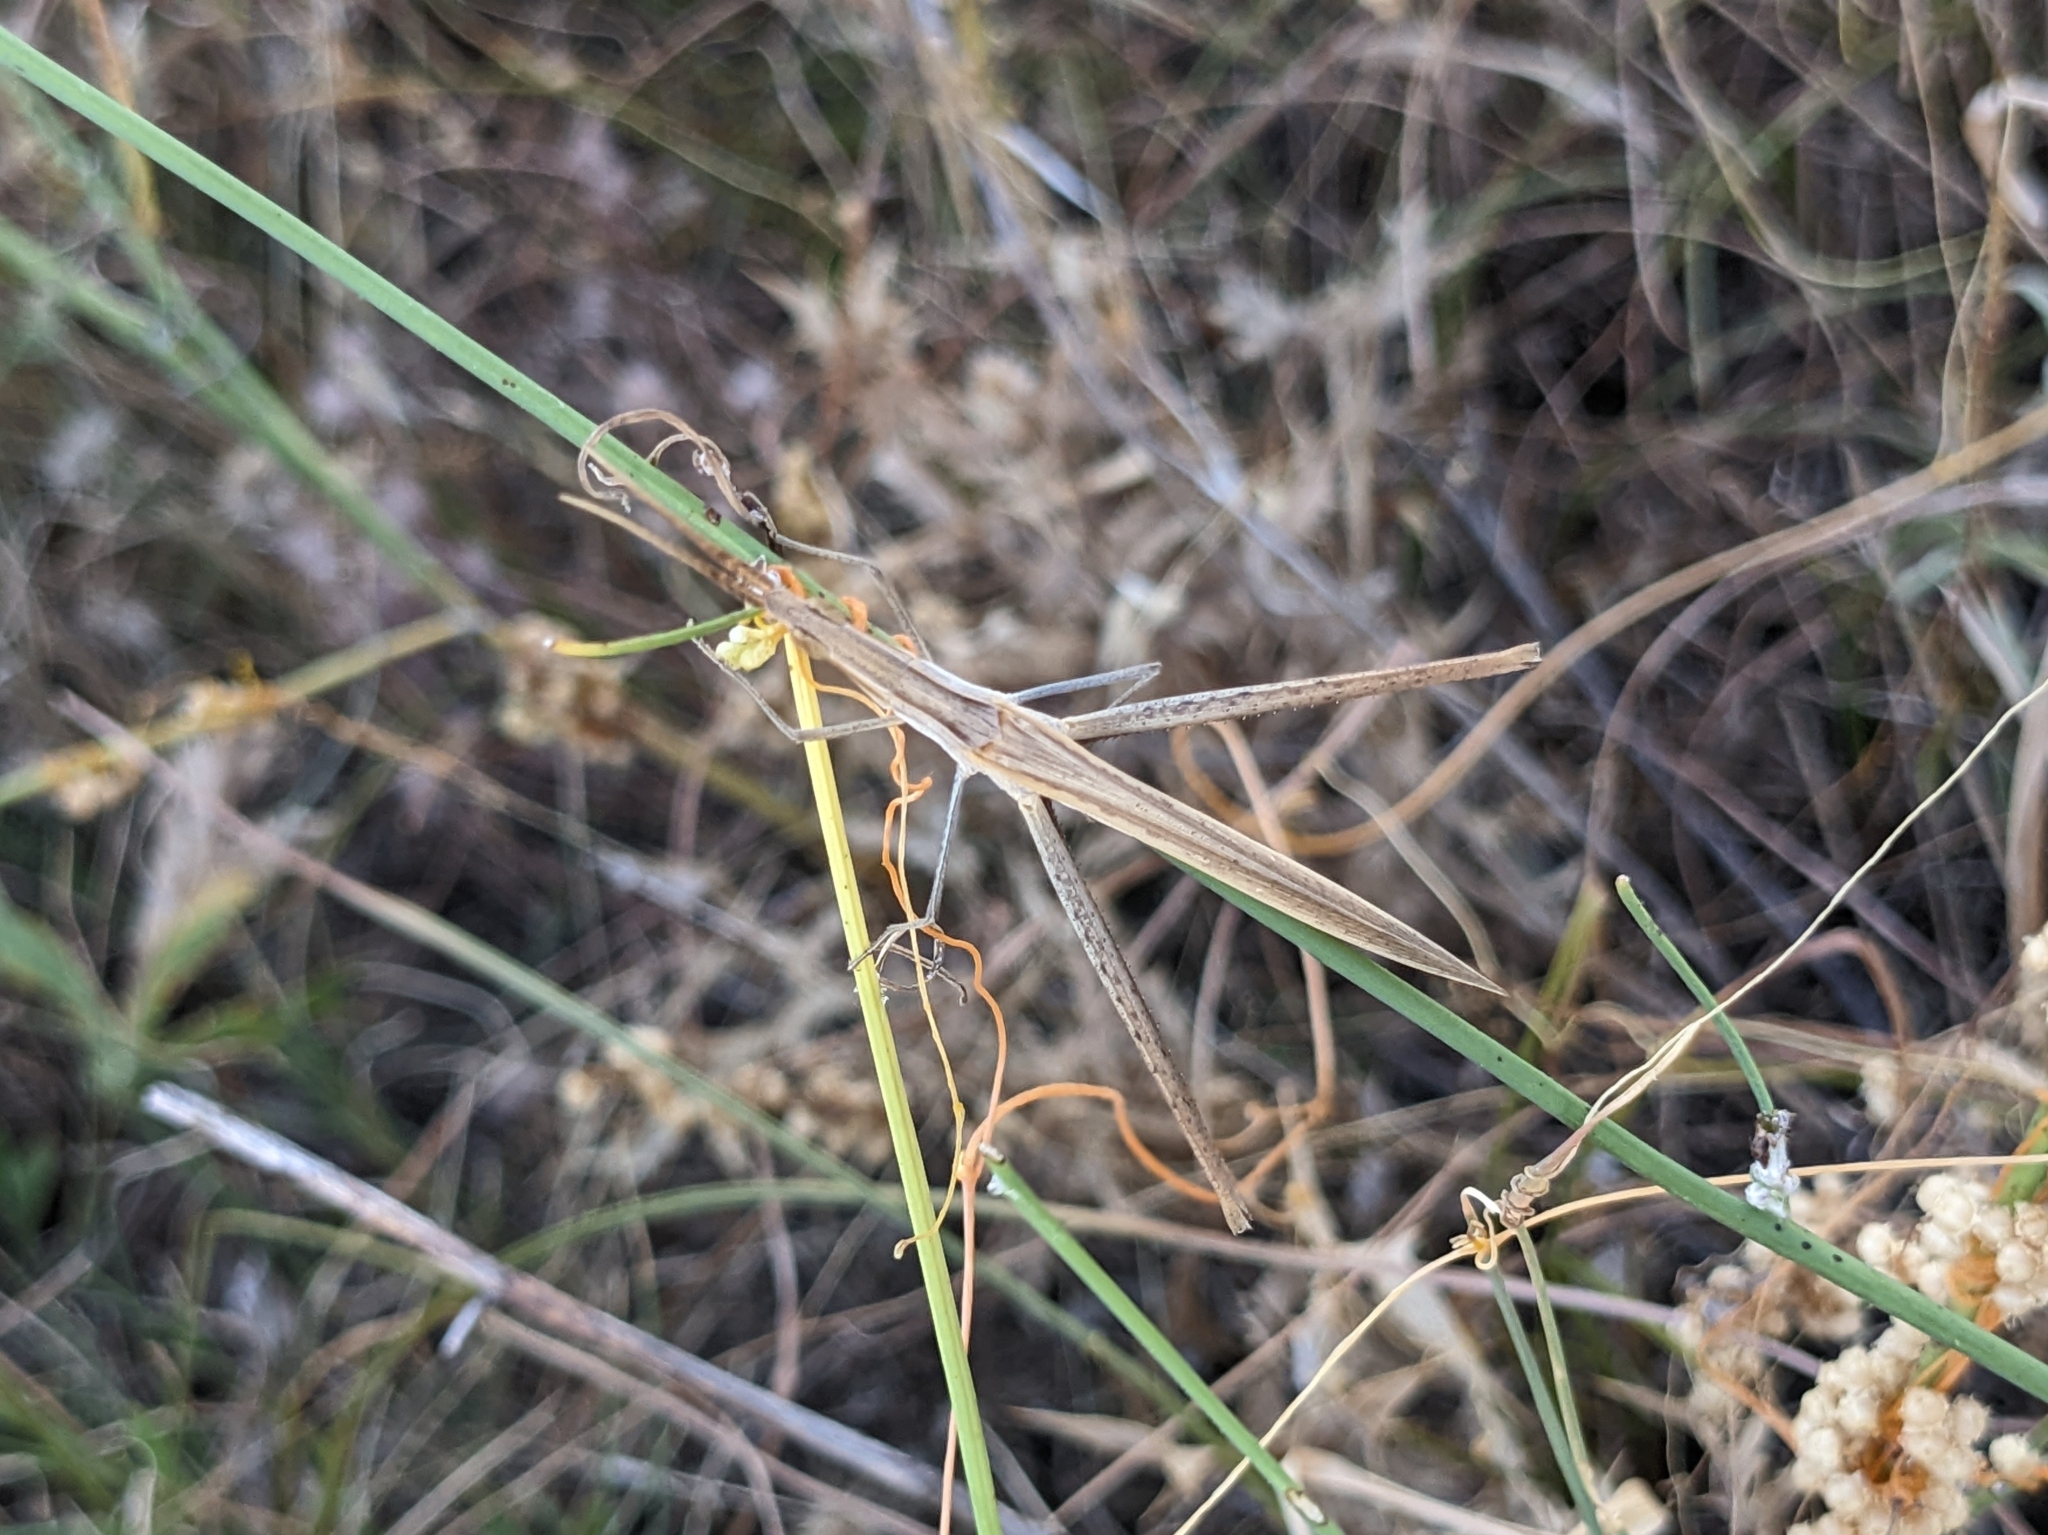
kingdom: Animalia
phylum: Arthropoda
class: Insecta
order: Orthoptera
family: Acrididae
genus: Acrida
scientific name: Acrida ungarica
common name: Common cone-headed grasshopper
